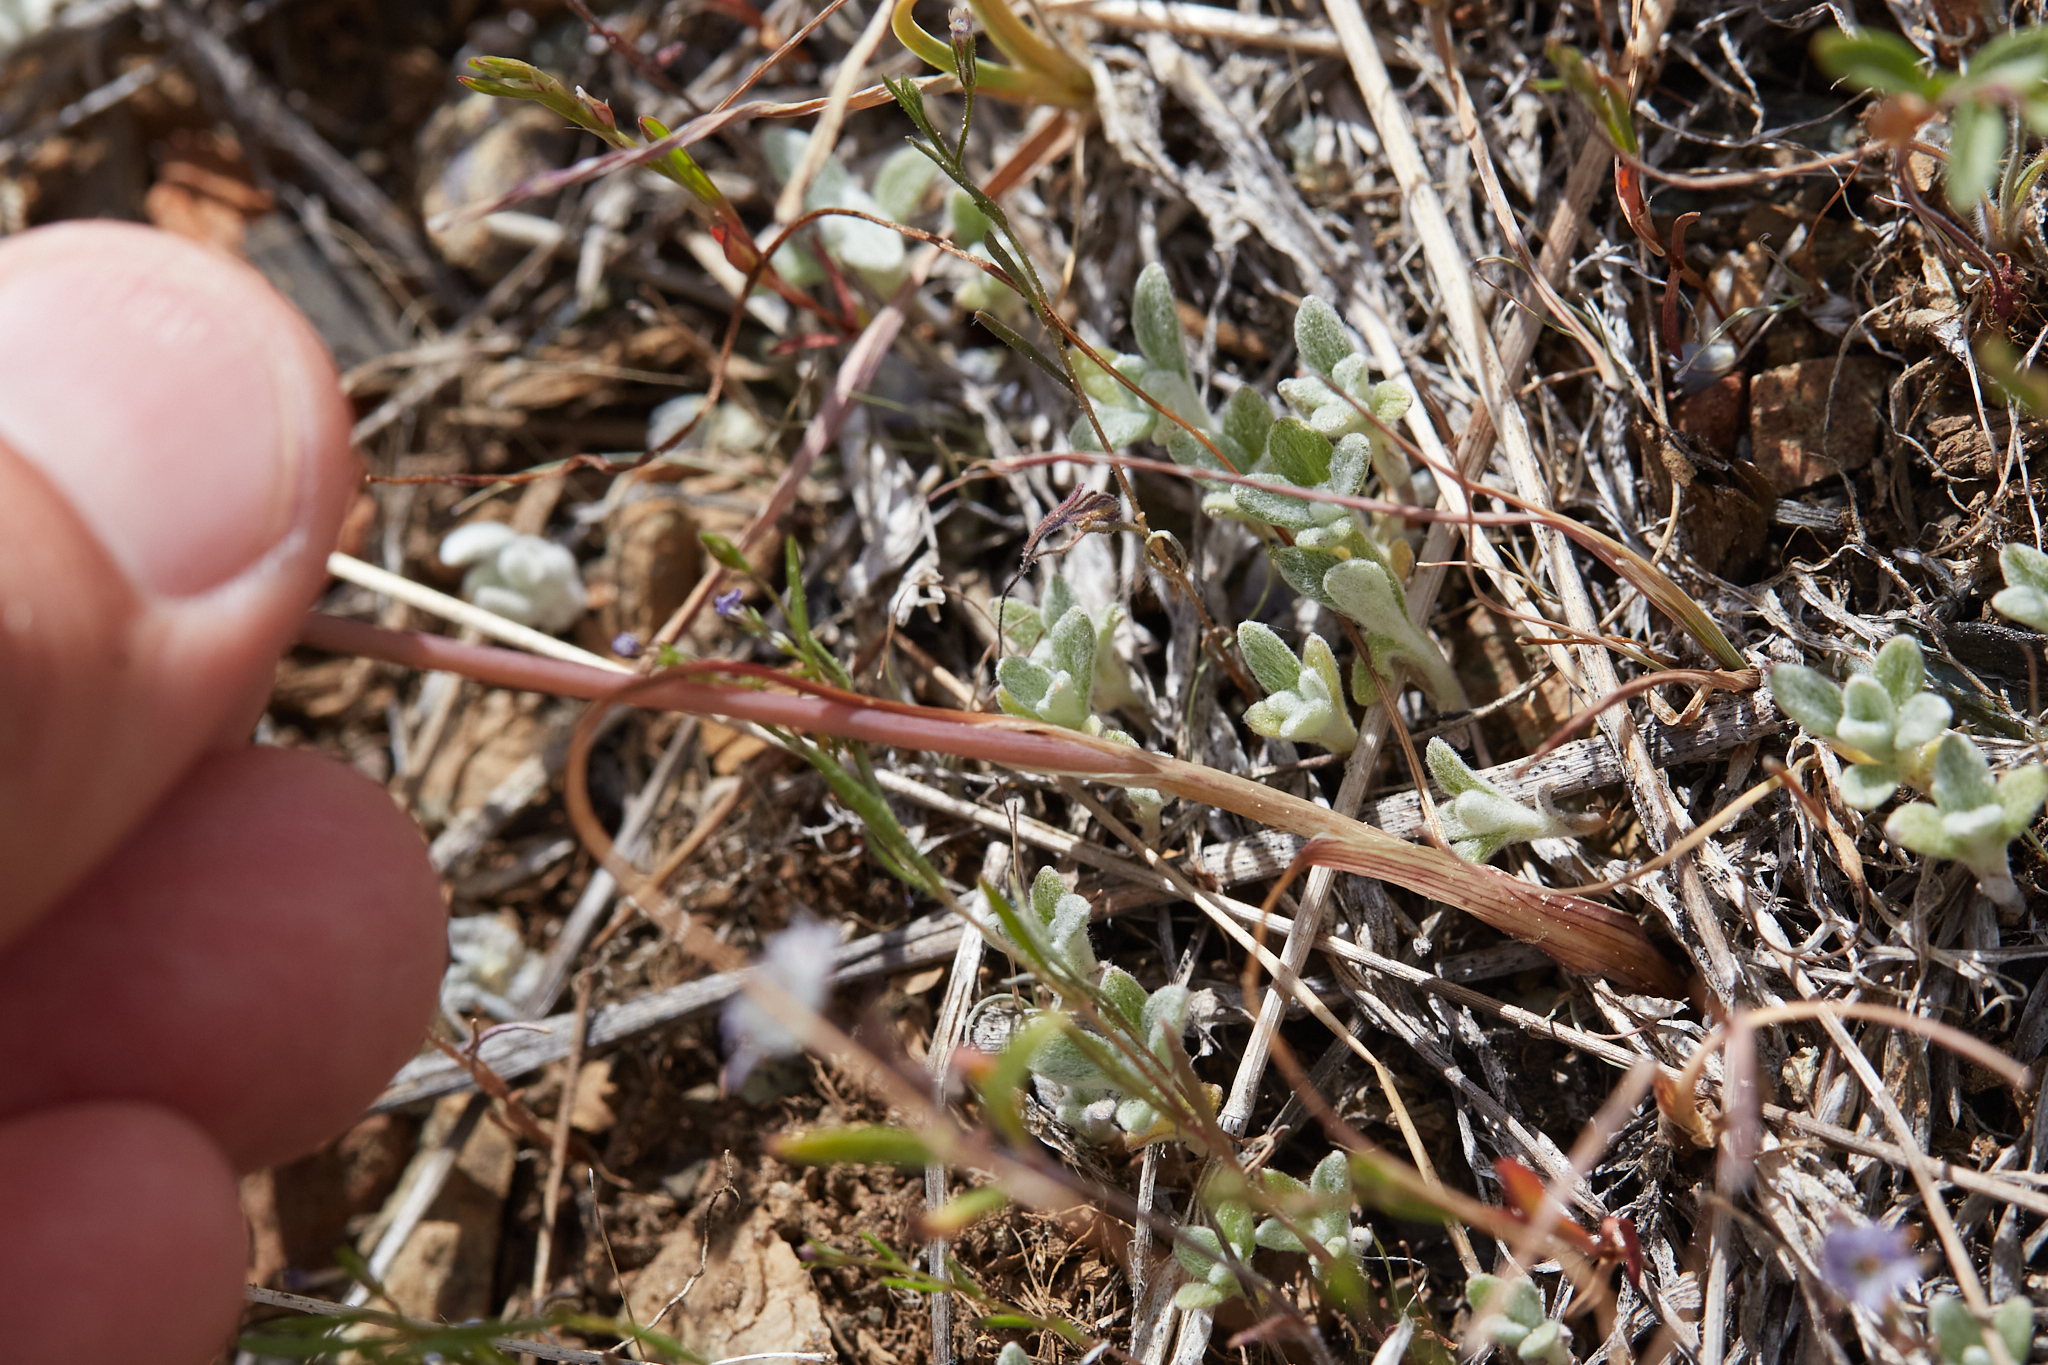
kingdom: Plantae
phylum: Tracheophyta
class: Liliopsida
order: Asparagales
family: Amaryllidaceae
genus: Allium
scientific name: Allium amplectens
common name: Narrow-leaved onion
